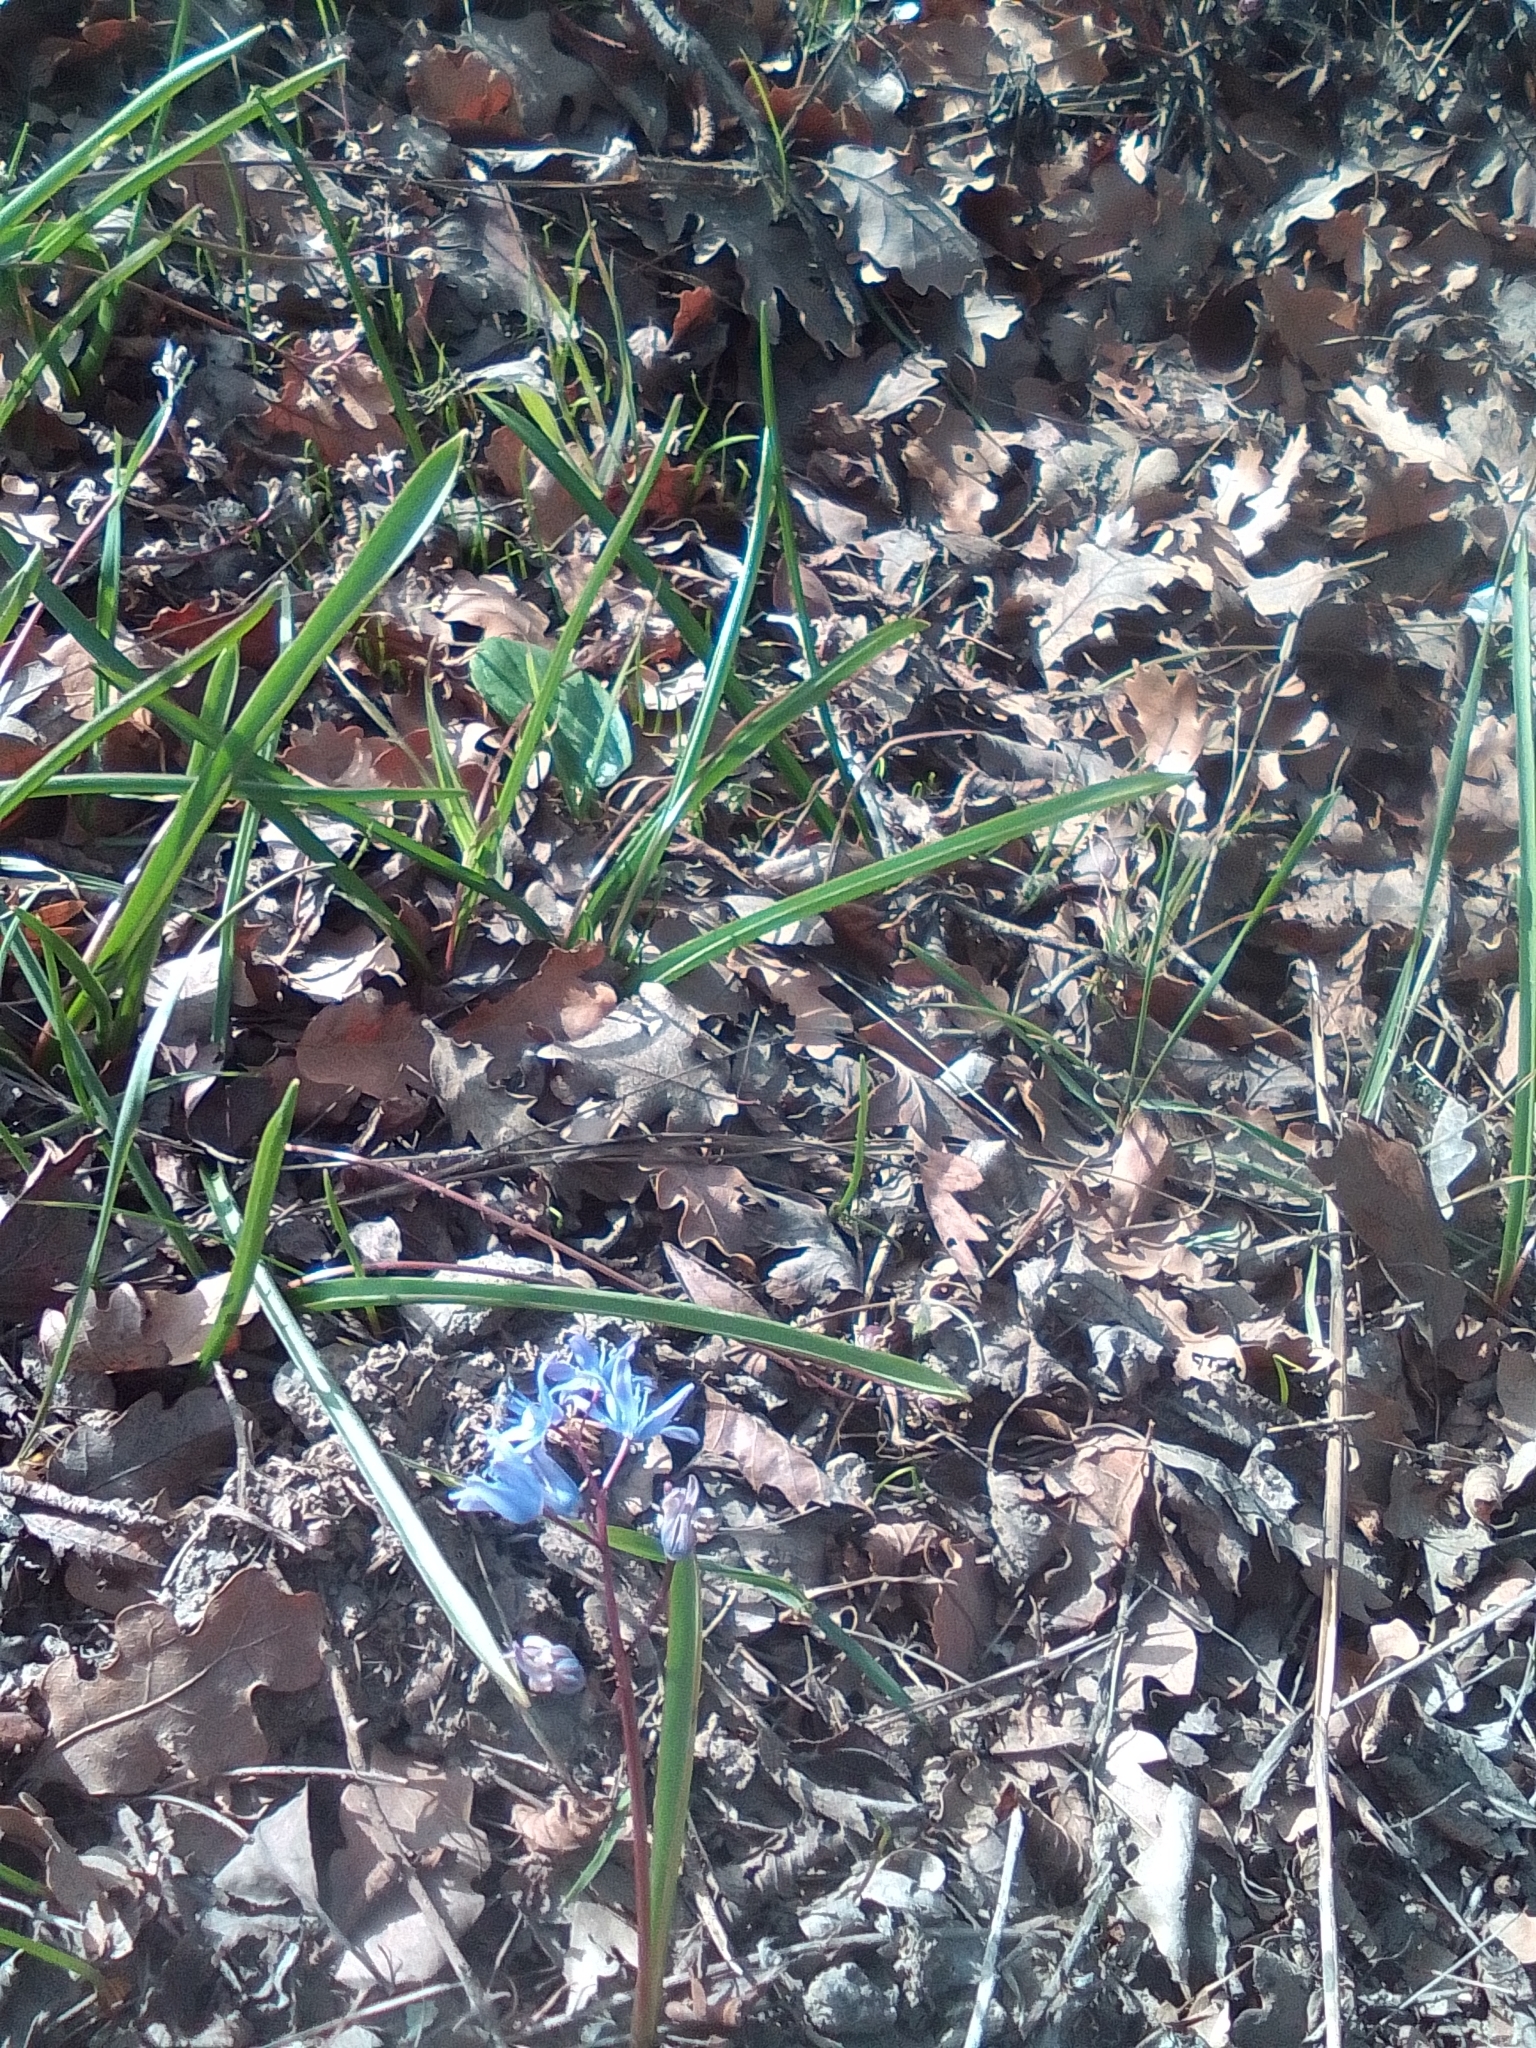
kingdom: Plantae
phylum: Tracheophyta
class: Liliopsida
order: Asparagales
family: Asparagaceae
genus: Scilla
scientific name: Scilla bifolia
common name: Alpine squill
